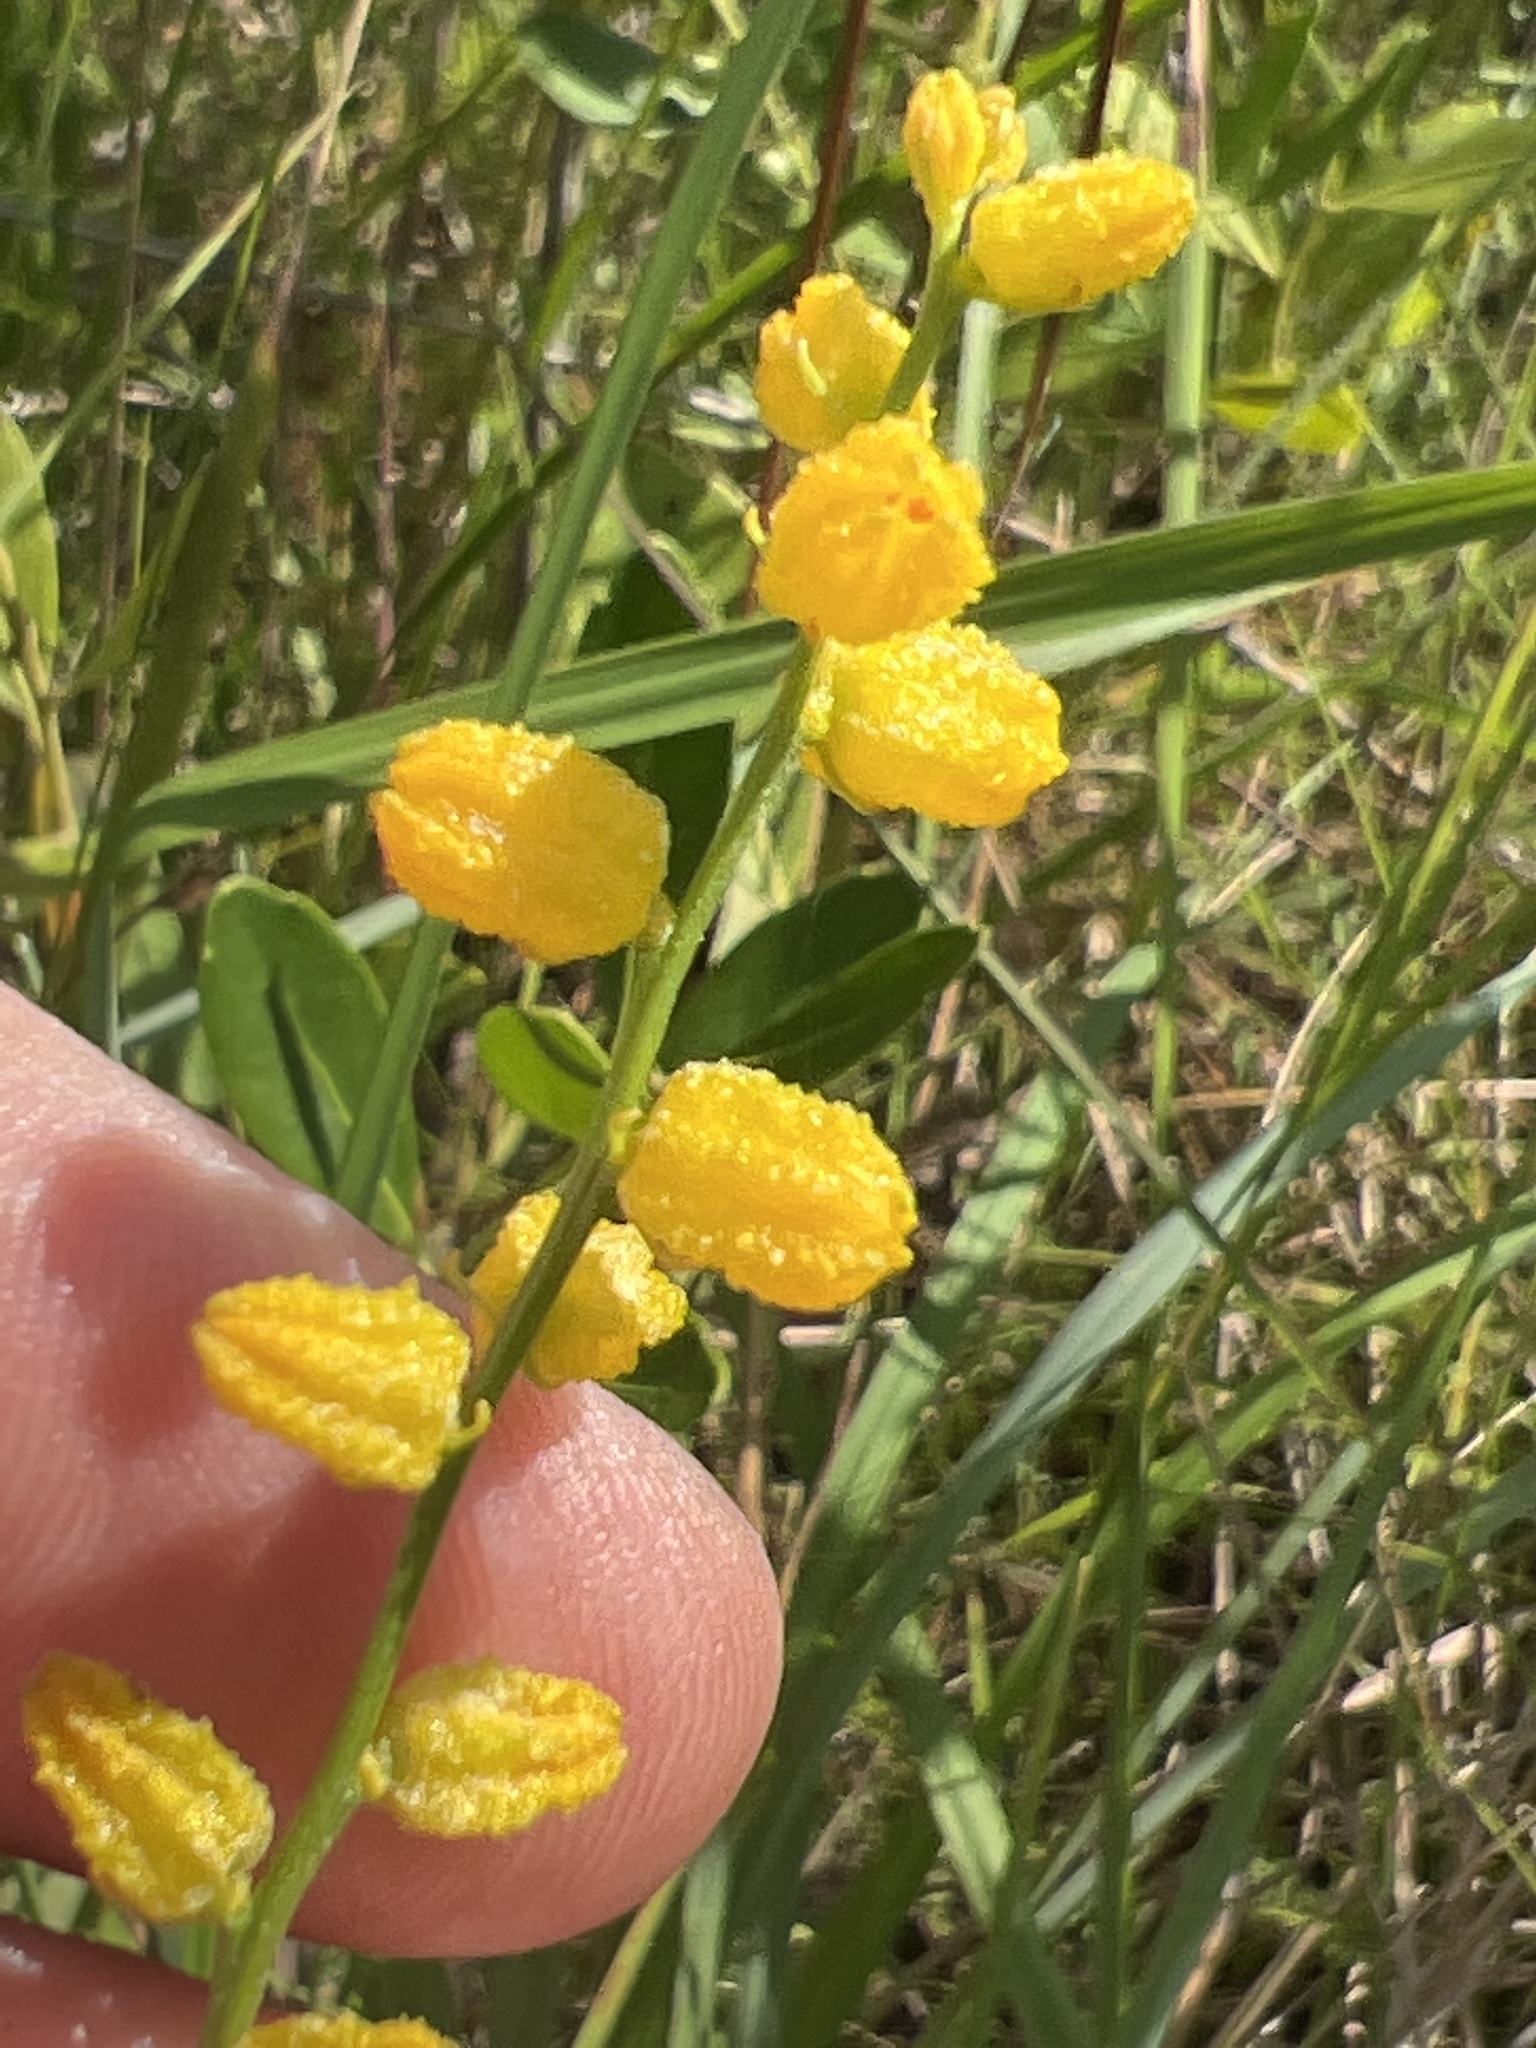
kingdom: Plantae
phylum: Tracheophyta
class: Liliopsida
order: Dioscoreales
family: Nartheciaceae
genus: Aletris
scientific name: Aletris aurea
